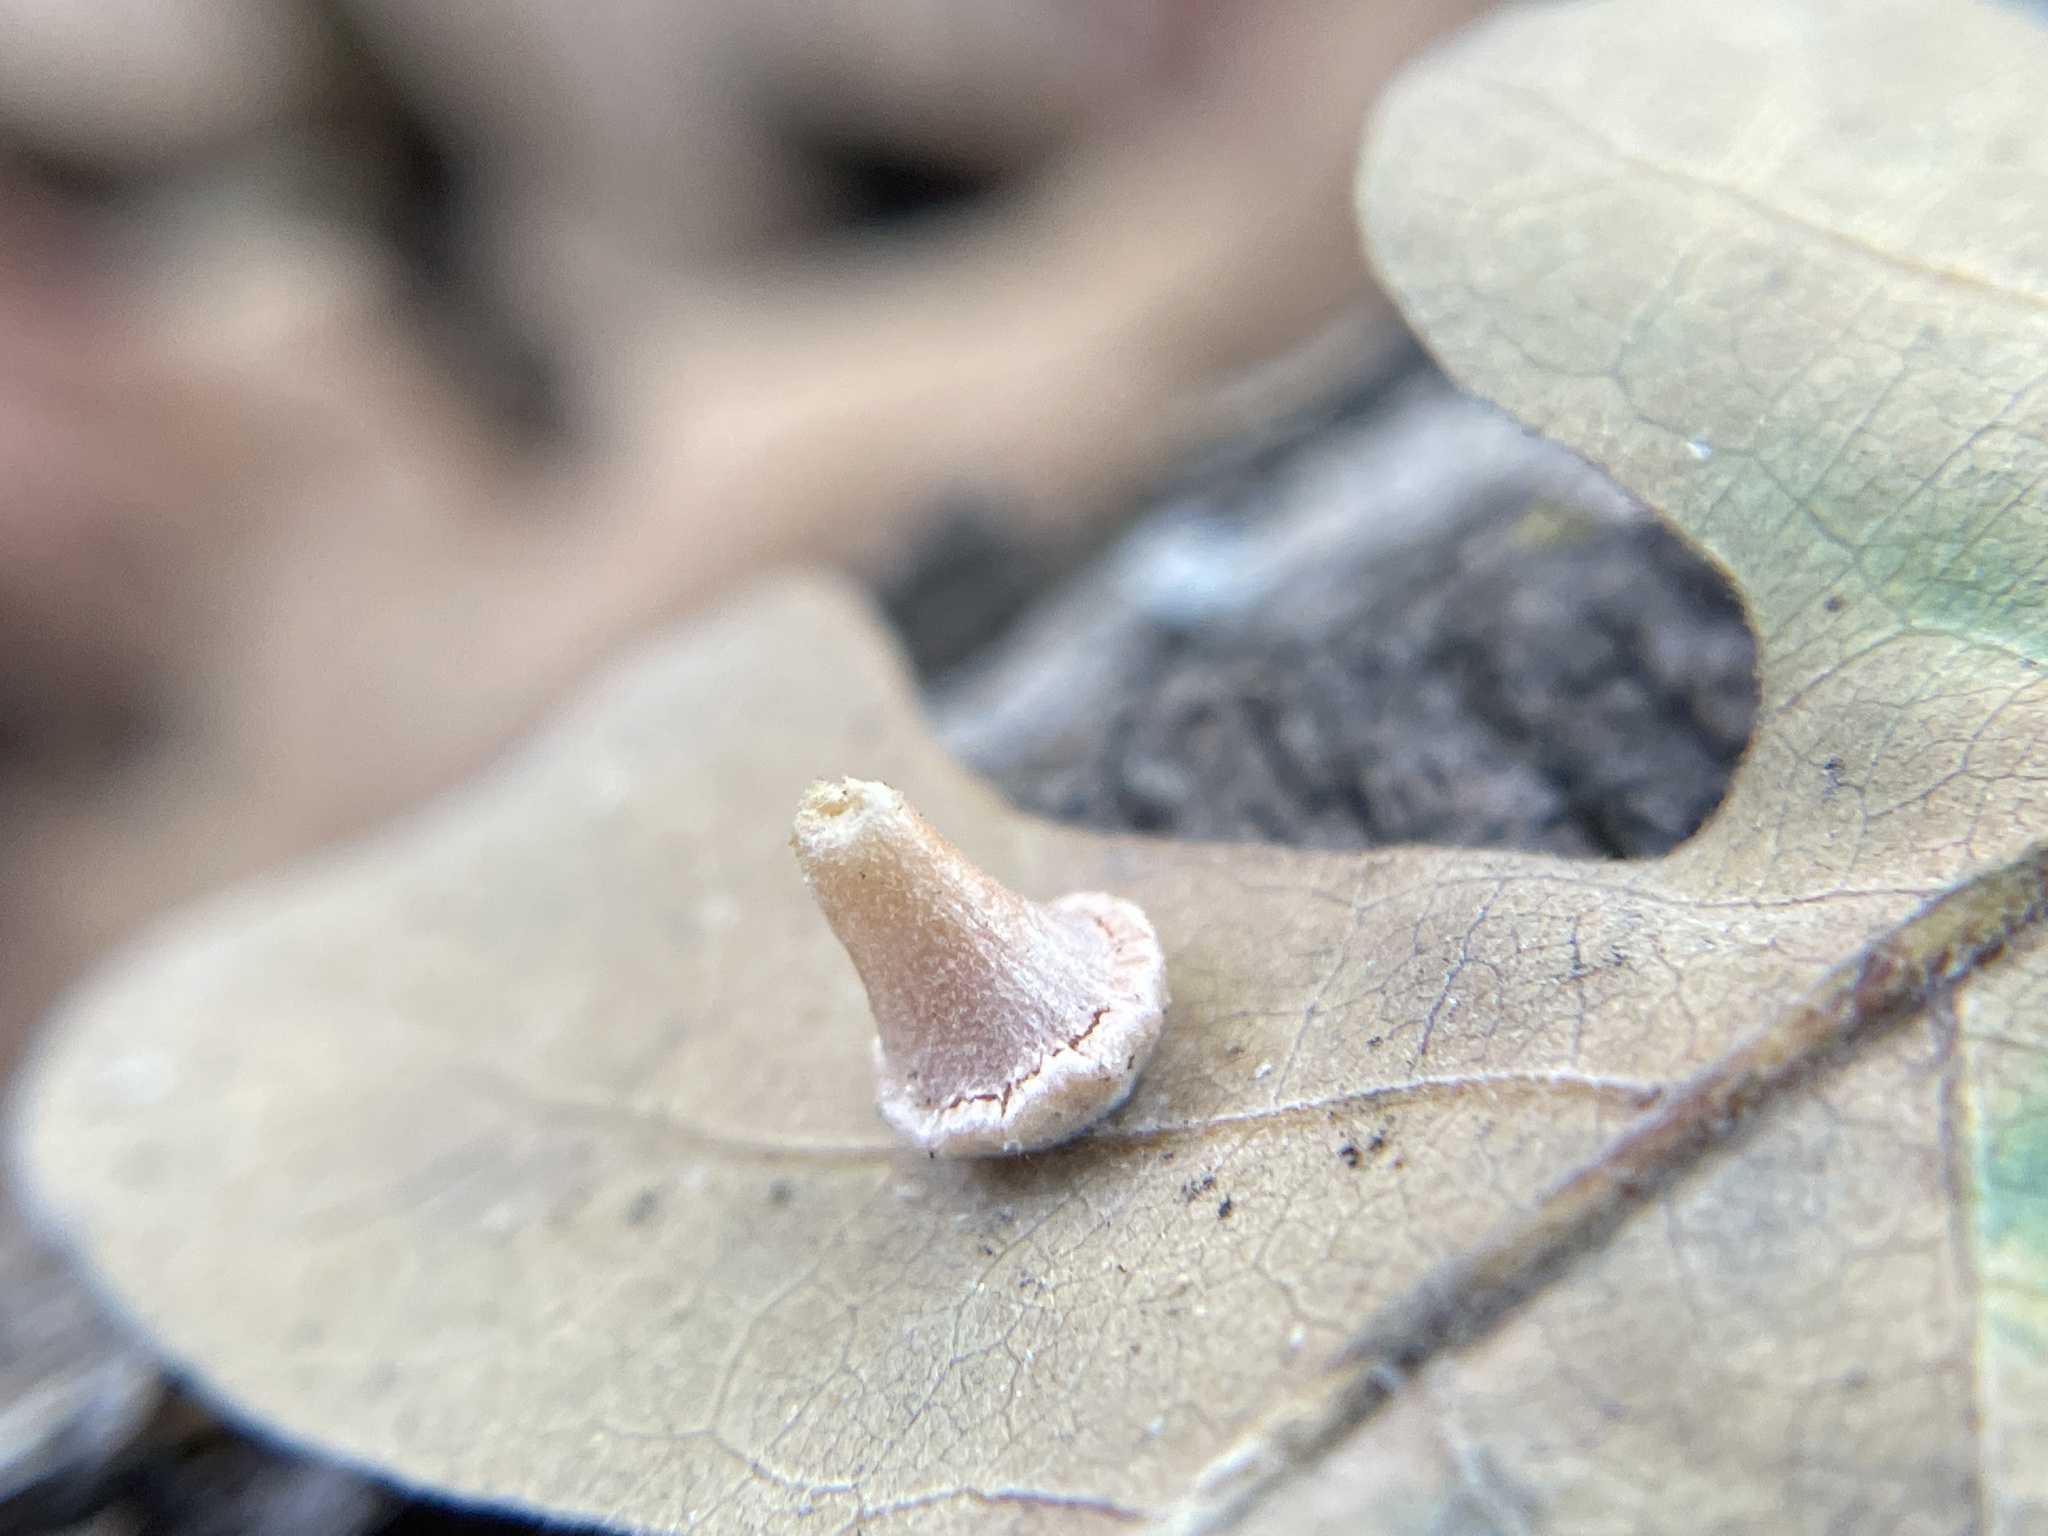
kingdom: Animalia
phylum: Arthropoda
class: Insecta
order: Hymenoptera
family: Cynipidae
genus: Andricus
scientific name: Andricus
